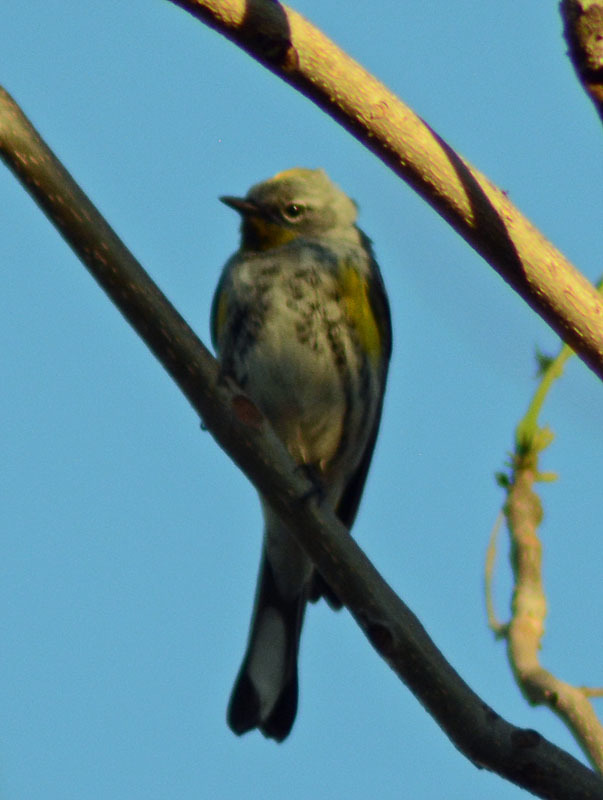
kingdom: Animalia
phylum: Chordata
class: Aves
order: Passeriformes
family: Parulidae
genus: Setophaga
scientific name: Setophaga coronata
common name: Myrtle warbler
